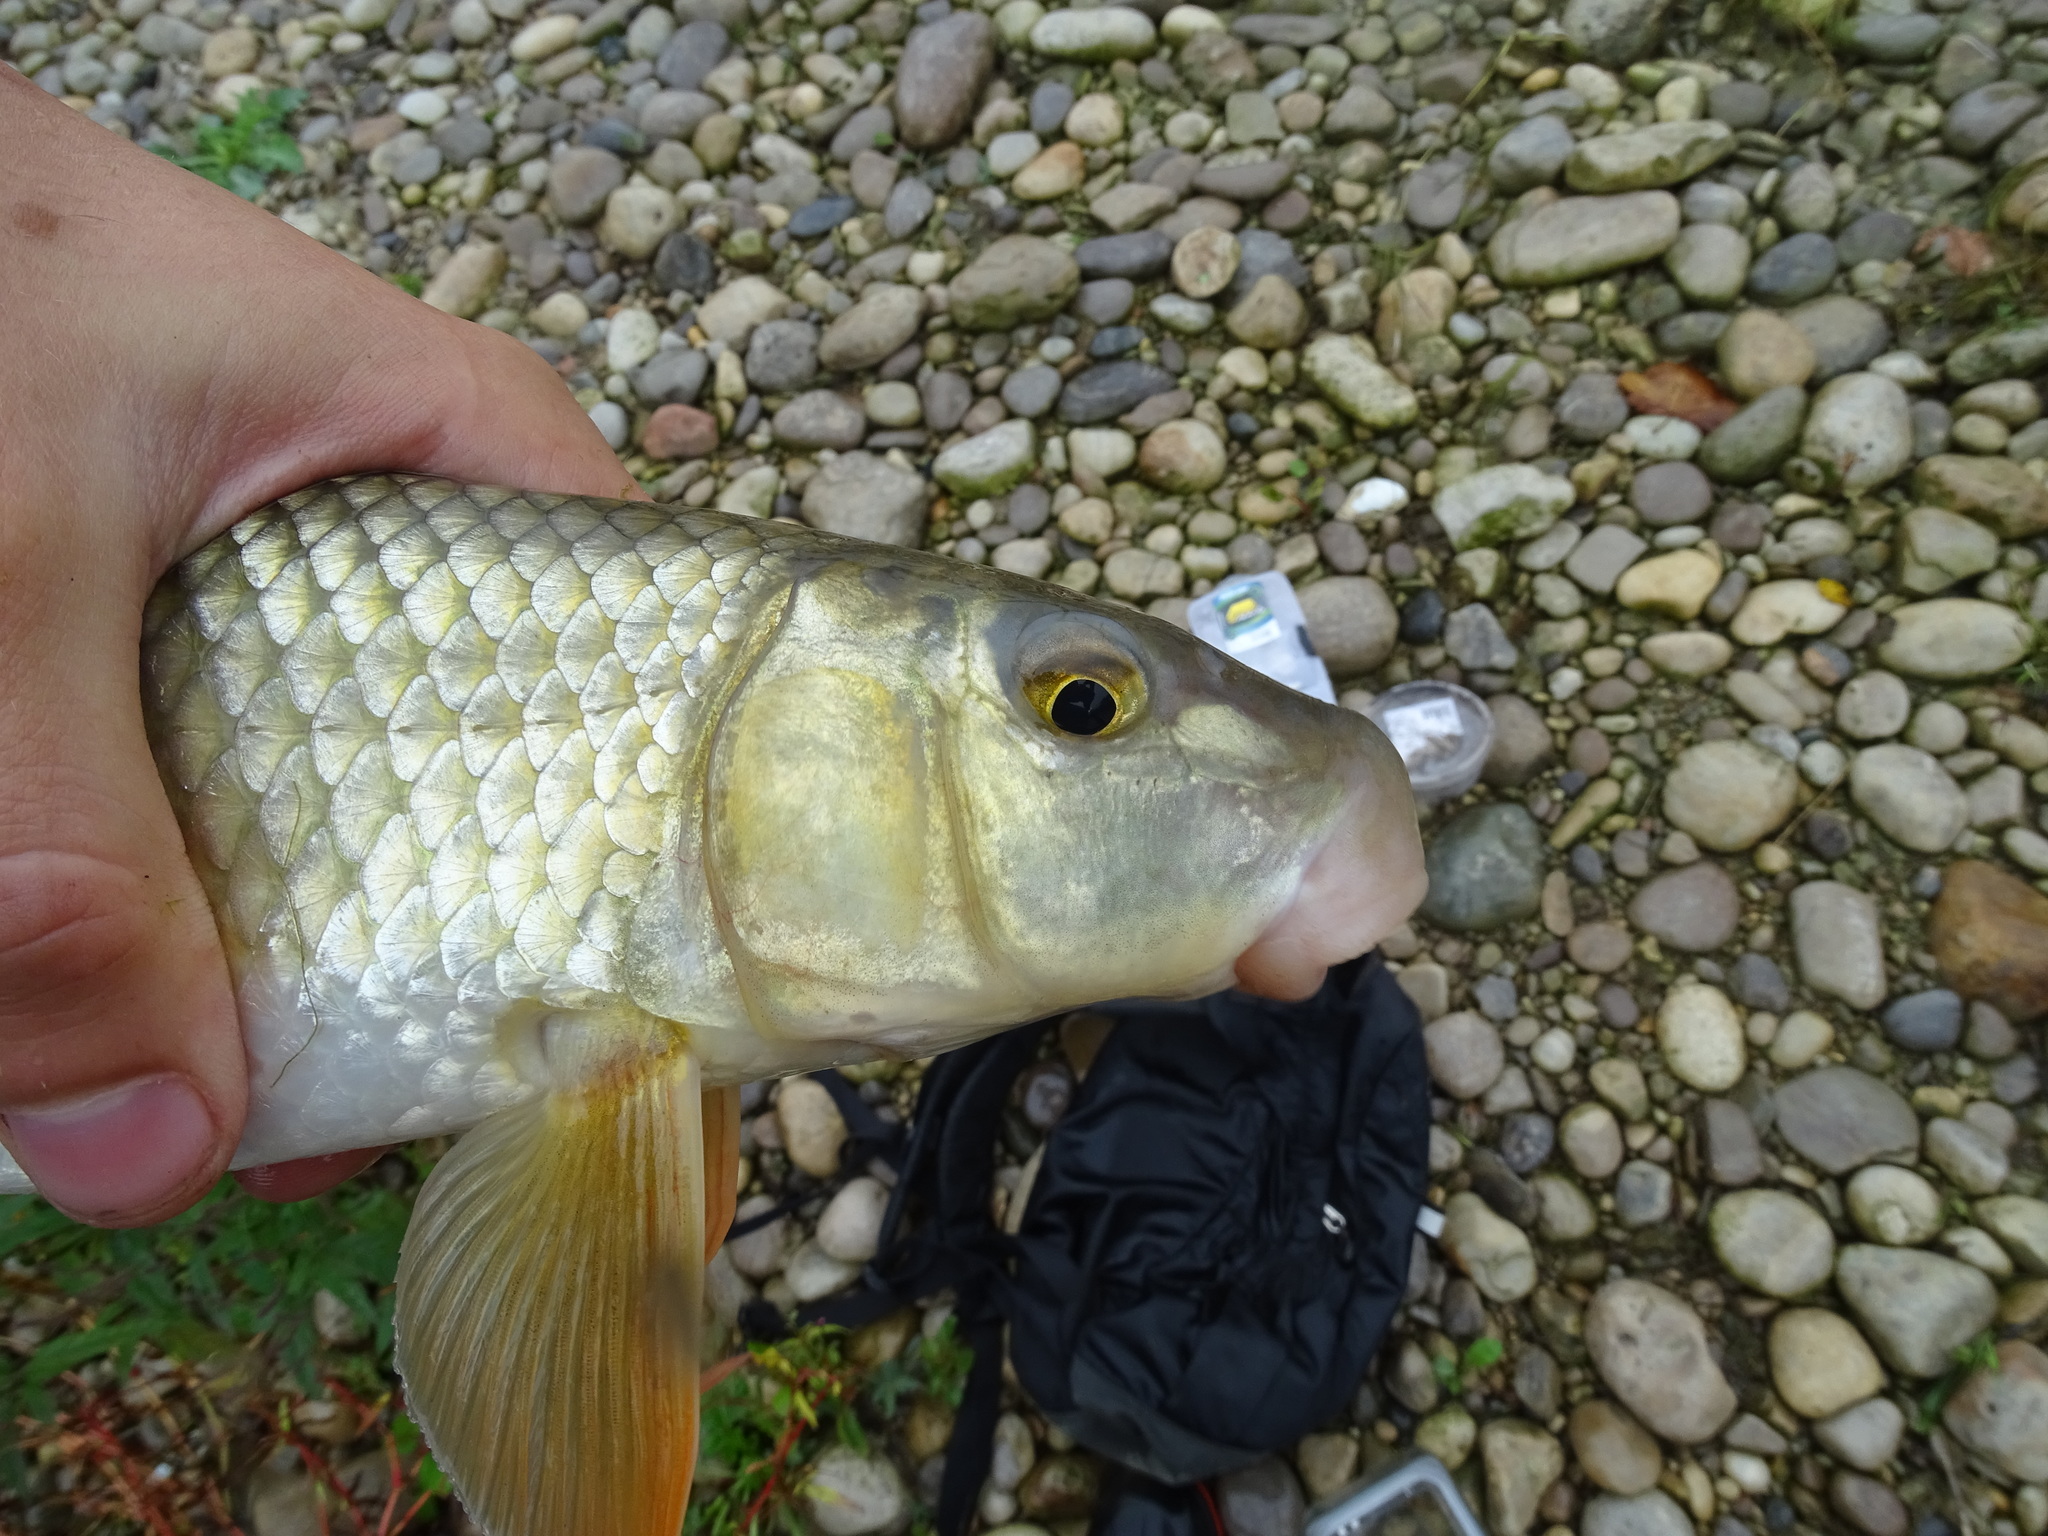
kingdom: Animalia
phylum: Chordata
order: Cypriniformes
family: Catostomidae
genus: Moxostoma
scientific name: Moxostoma erythrurum
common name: Golden redhorse
